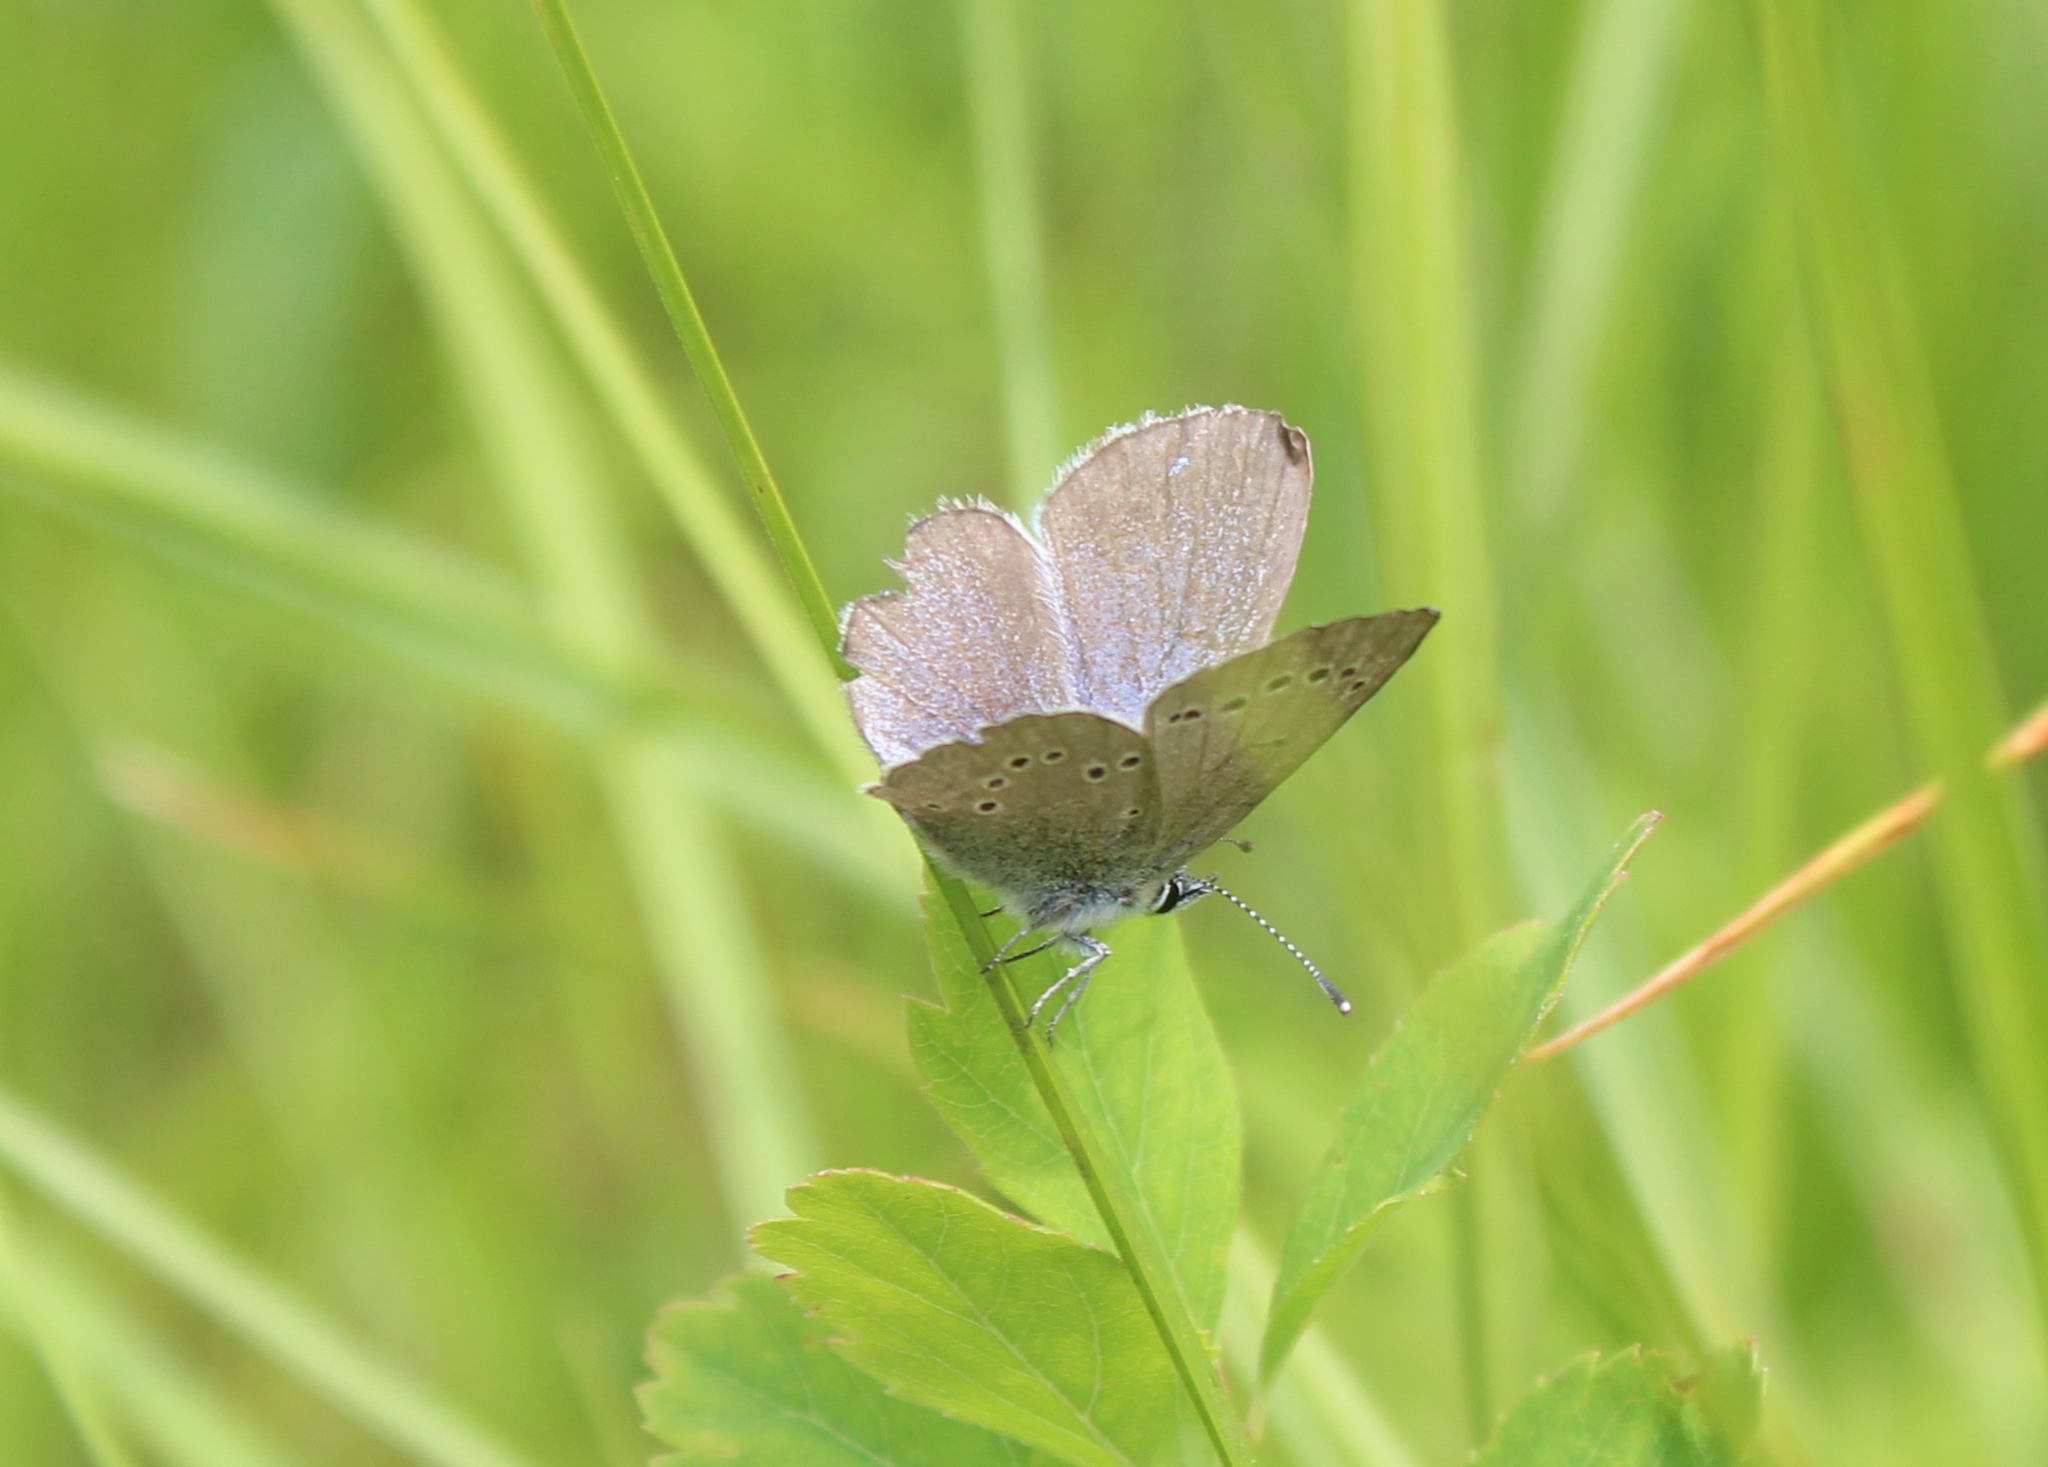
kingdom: Animalia
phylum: Arthropoda
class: Insecta
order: Lepidoptera
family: Lycaenidae
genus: Glaucopsyche
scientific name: Glaucopsyche lygdamus
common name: Silvery blue
